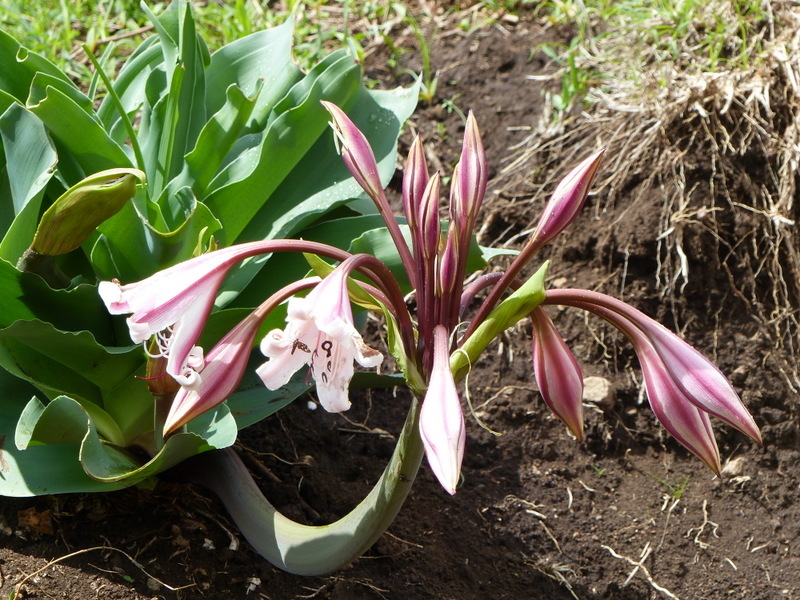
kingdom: Plantae
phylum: Tracheophyta
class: Liliopsida
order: Asparagales
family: Amaryllidaceae
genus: Crinum
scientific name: Crinum macowanii
